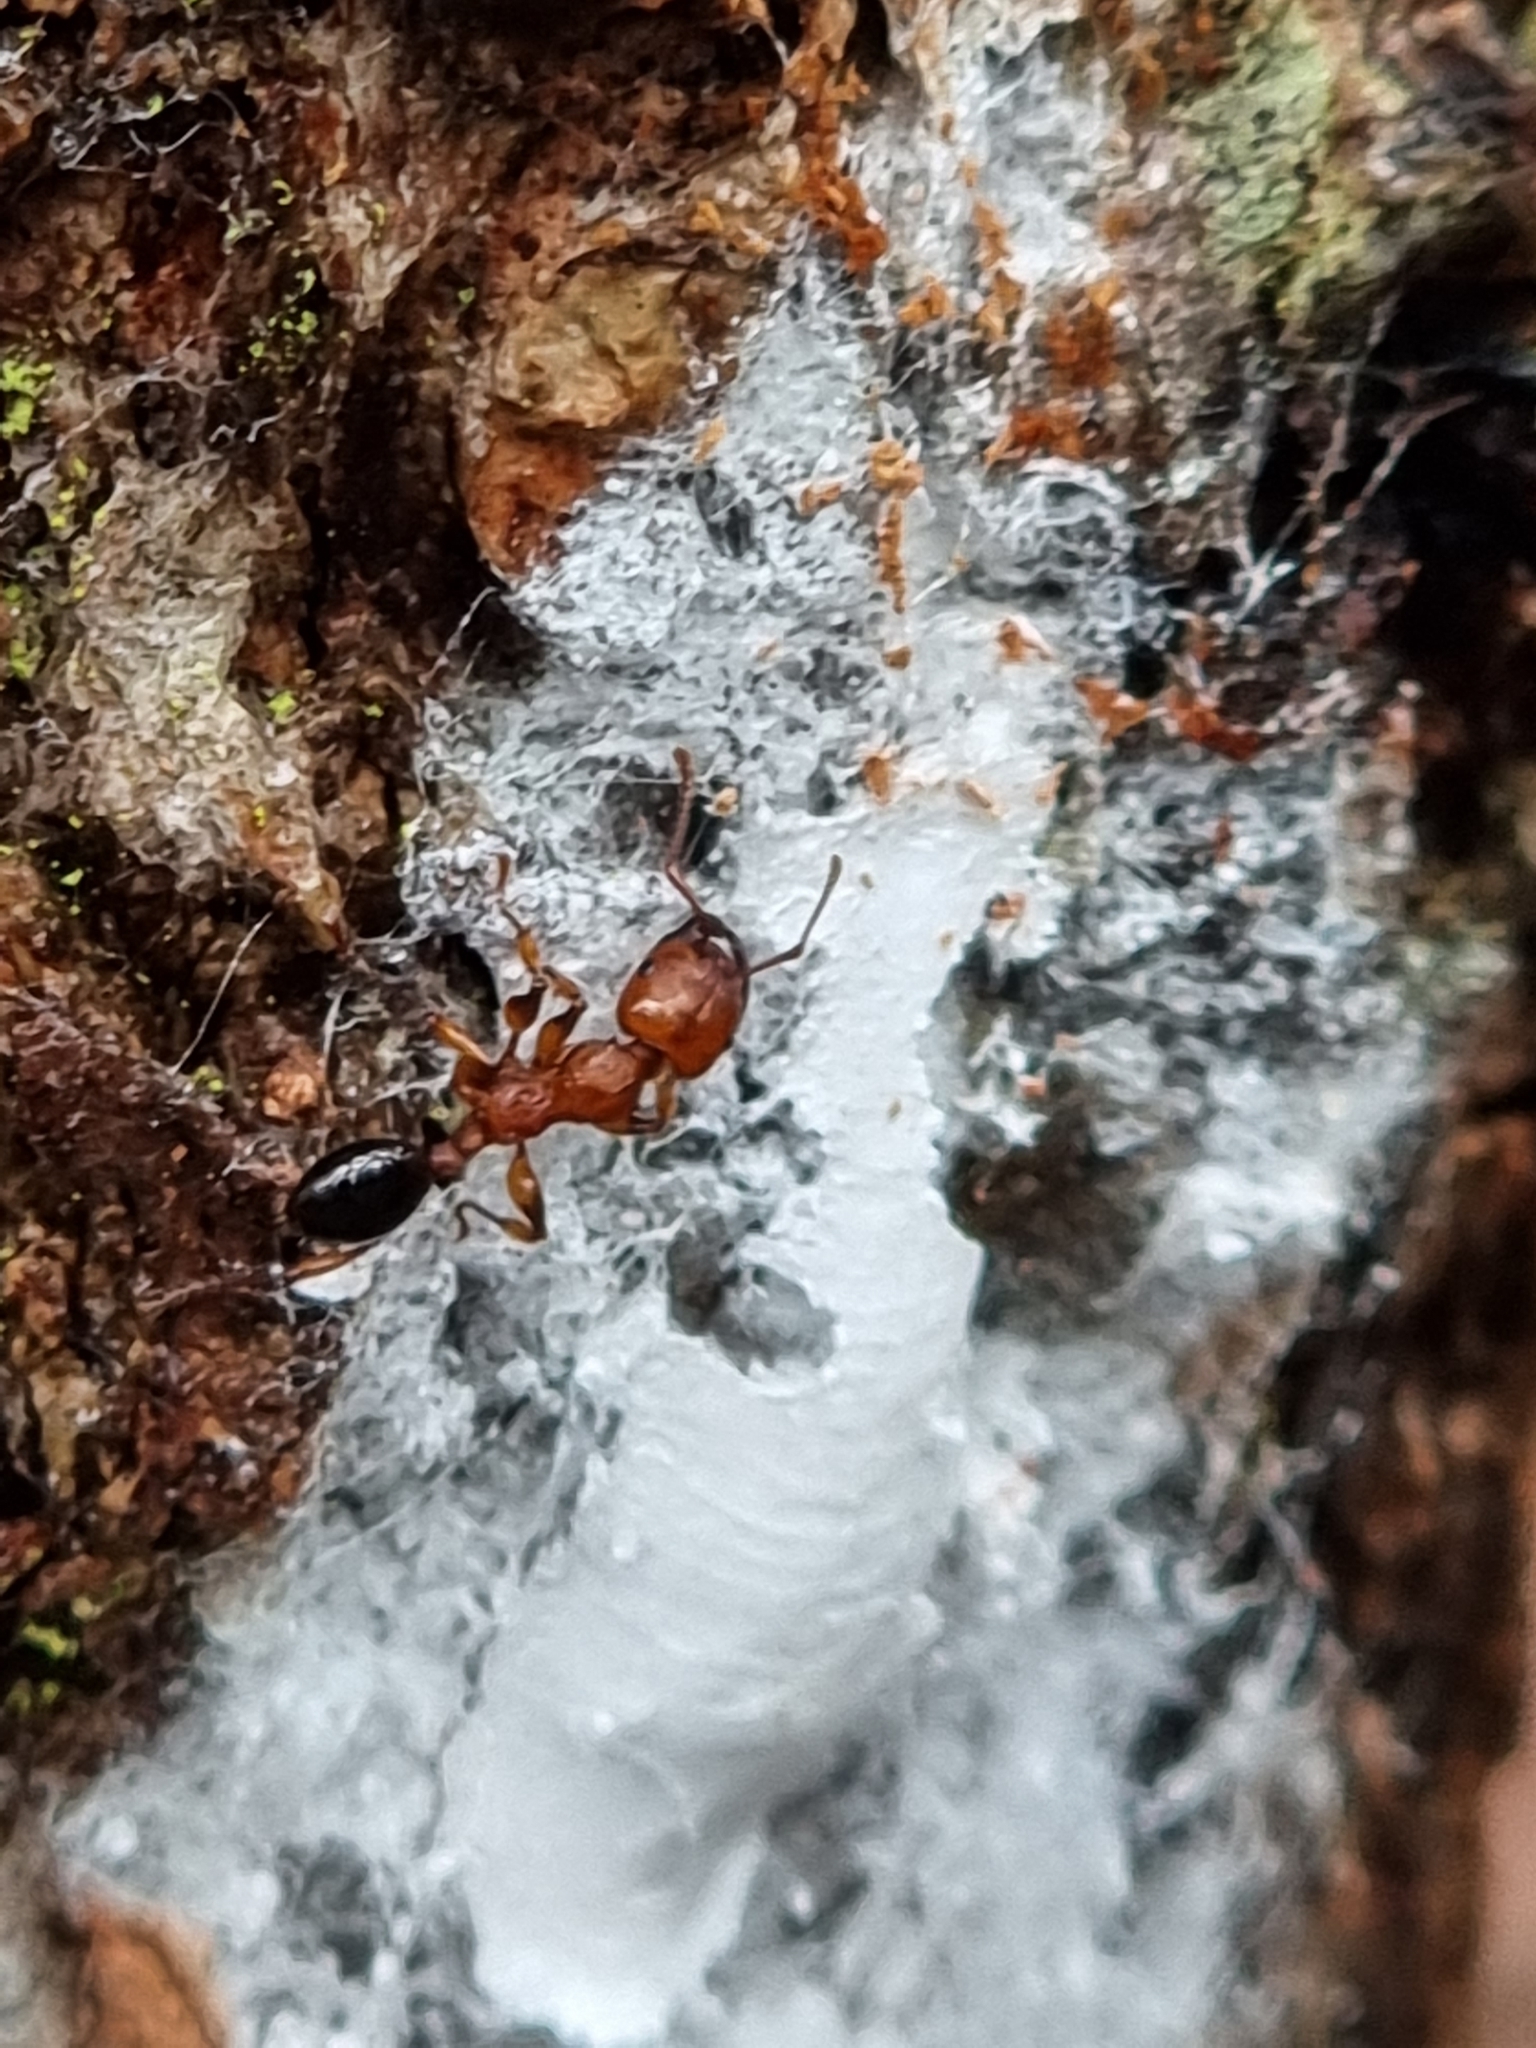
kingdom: Animalia
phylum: Arthropoda
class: Insecta
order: Hymenoptera
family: Formicidae
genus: Podomyrma
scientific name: Podomyrma gratiosa
